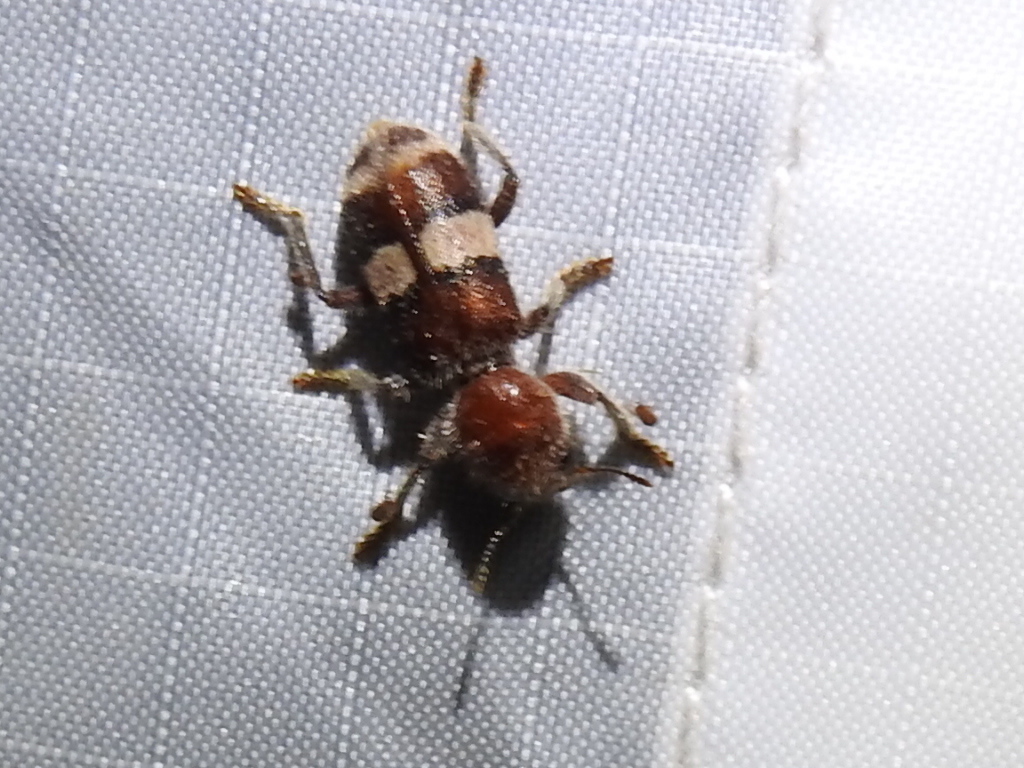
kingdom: Animalia
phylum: Arthropoda
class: Insecta
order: Coleoptera
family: Cleridae
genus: Enoclerus
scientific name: Enoclerus quadrisignatus
